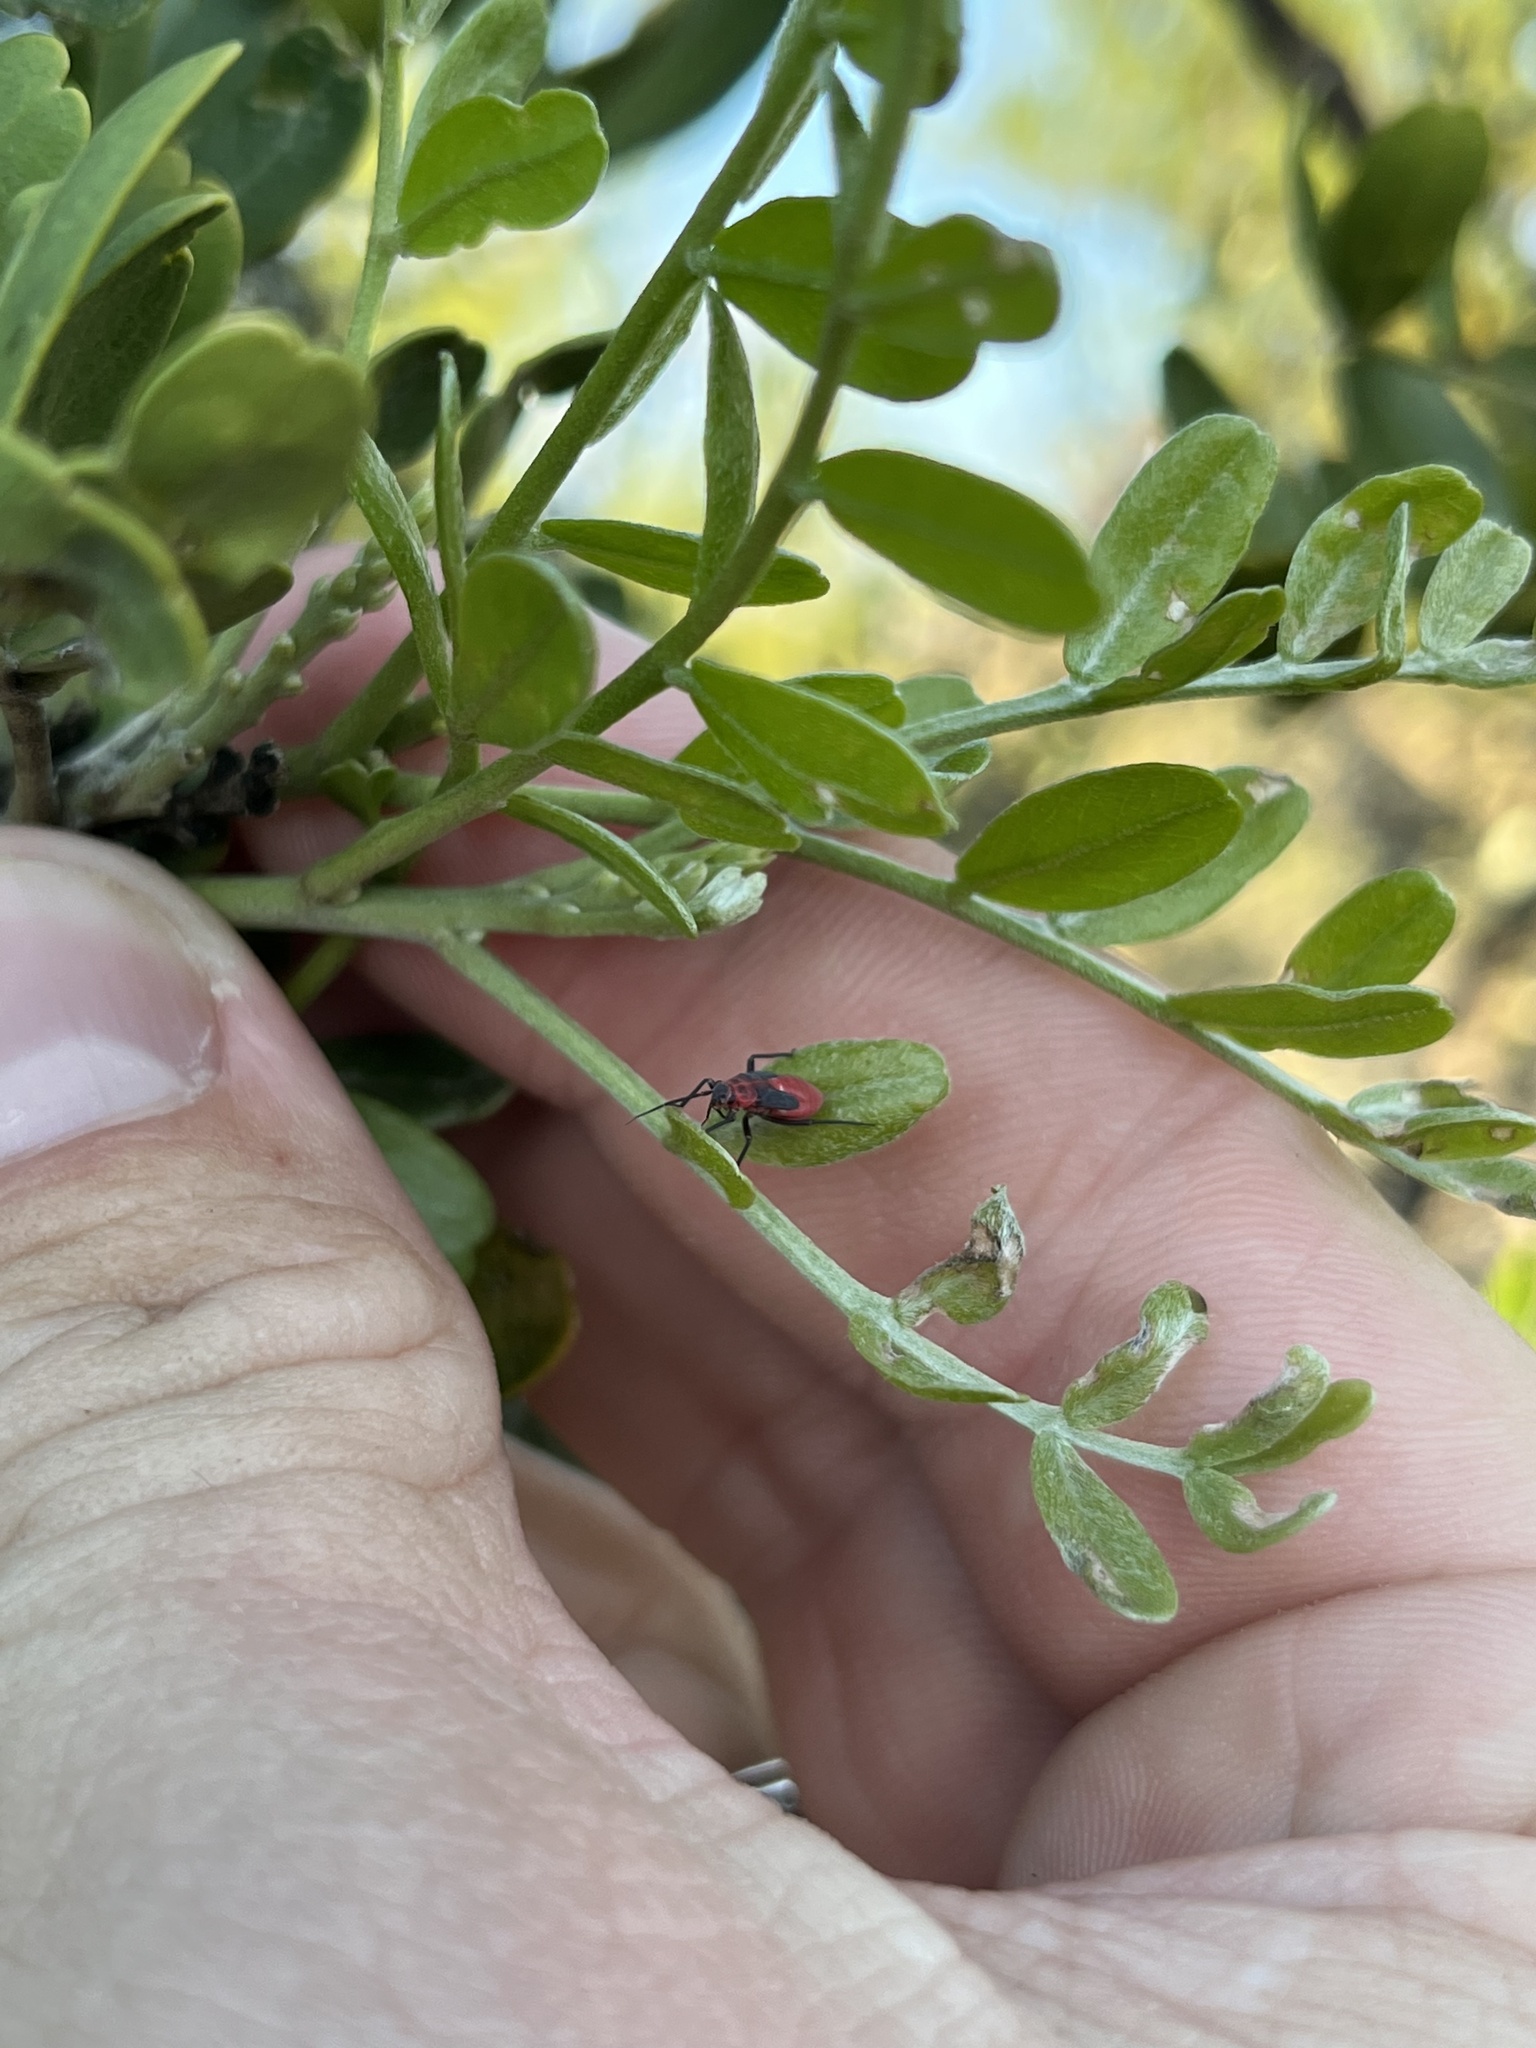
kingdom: Animalia
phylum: Arthropoda
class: Insecta
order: Hemiptera
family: Miridae
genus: Lopidea
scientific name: Lopidea major
